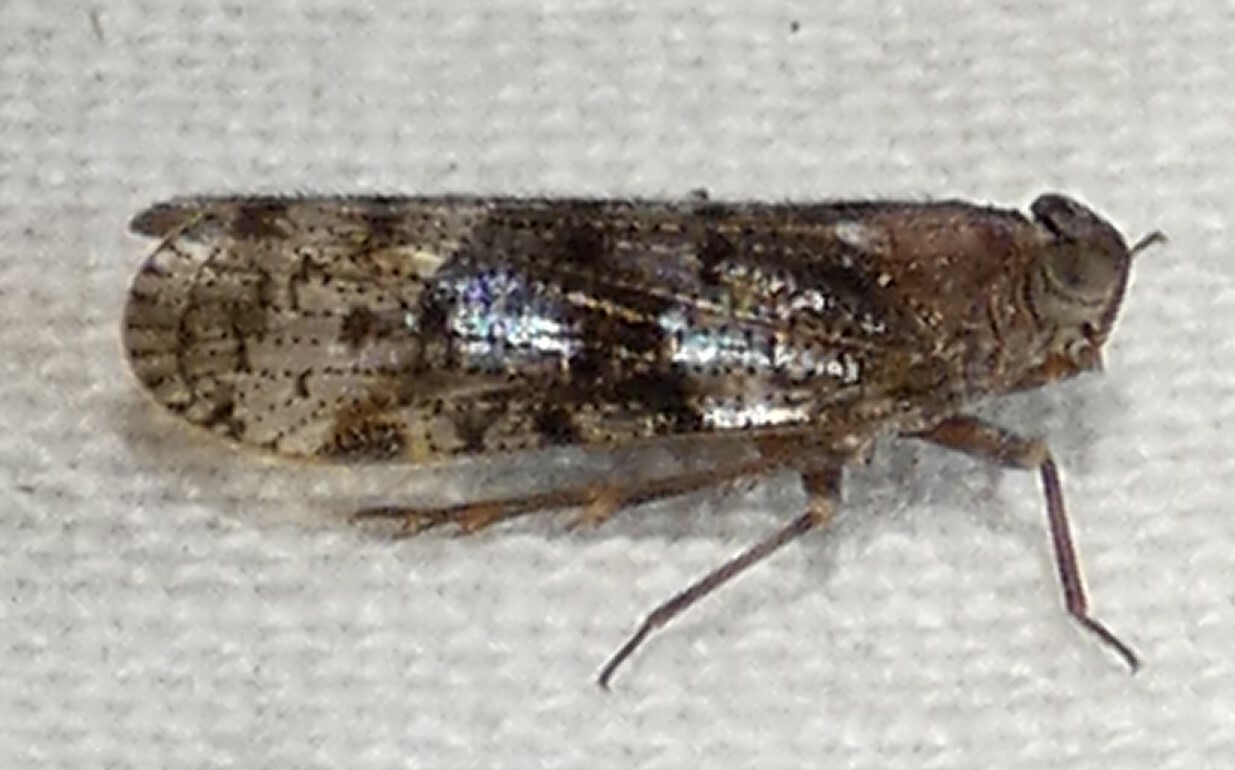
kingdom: Animalia
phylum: Arthropoda
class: Insecta
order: Hemiptera
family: Cixiidae
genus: Melanoliarus
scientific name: Melanoliarus vicarius
